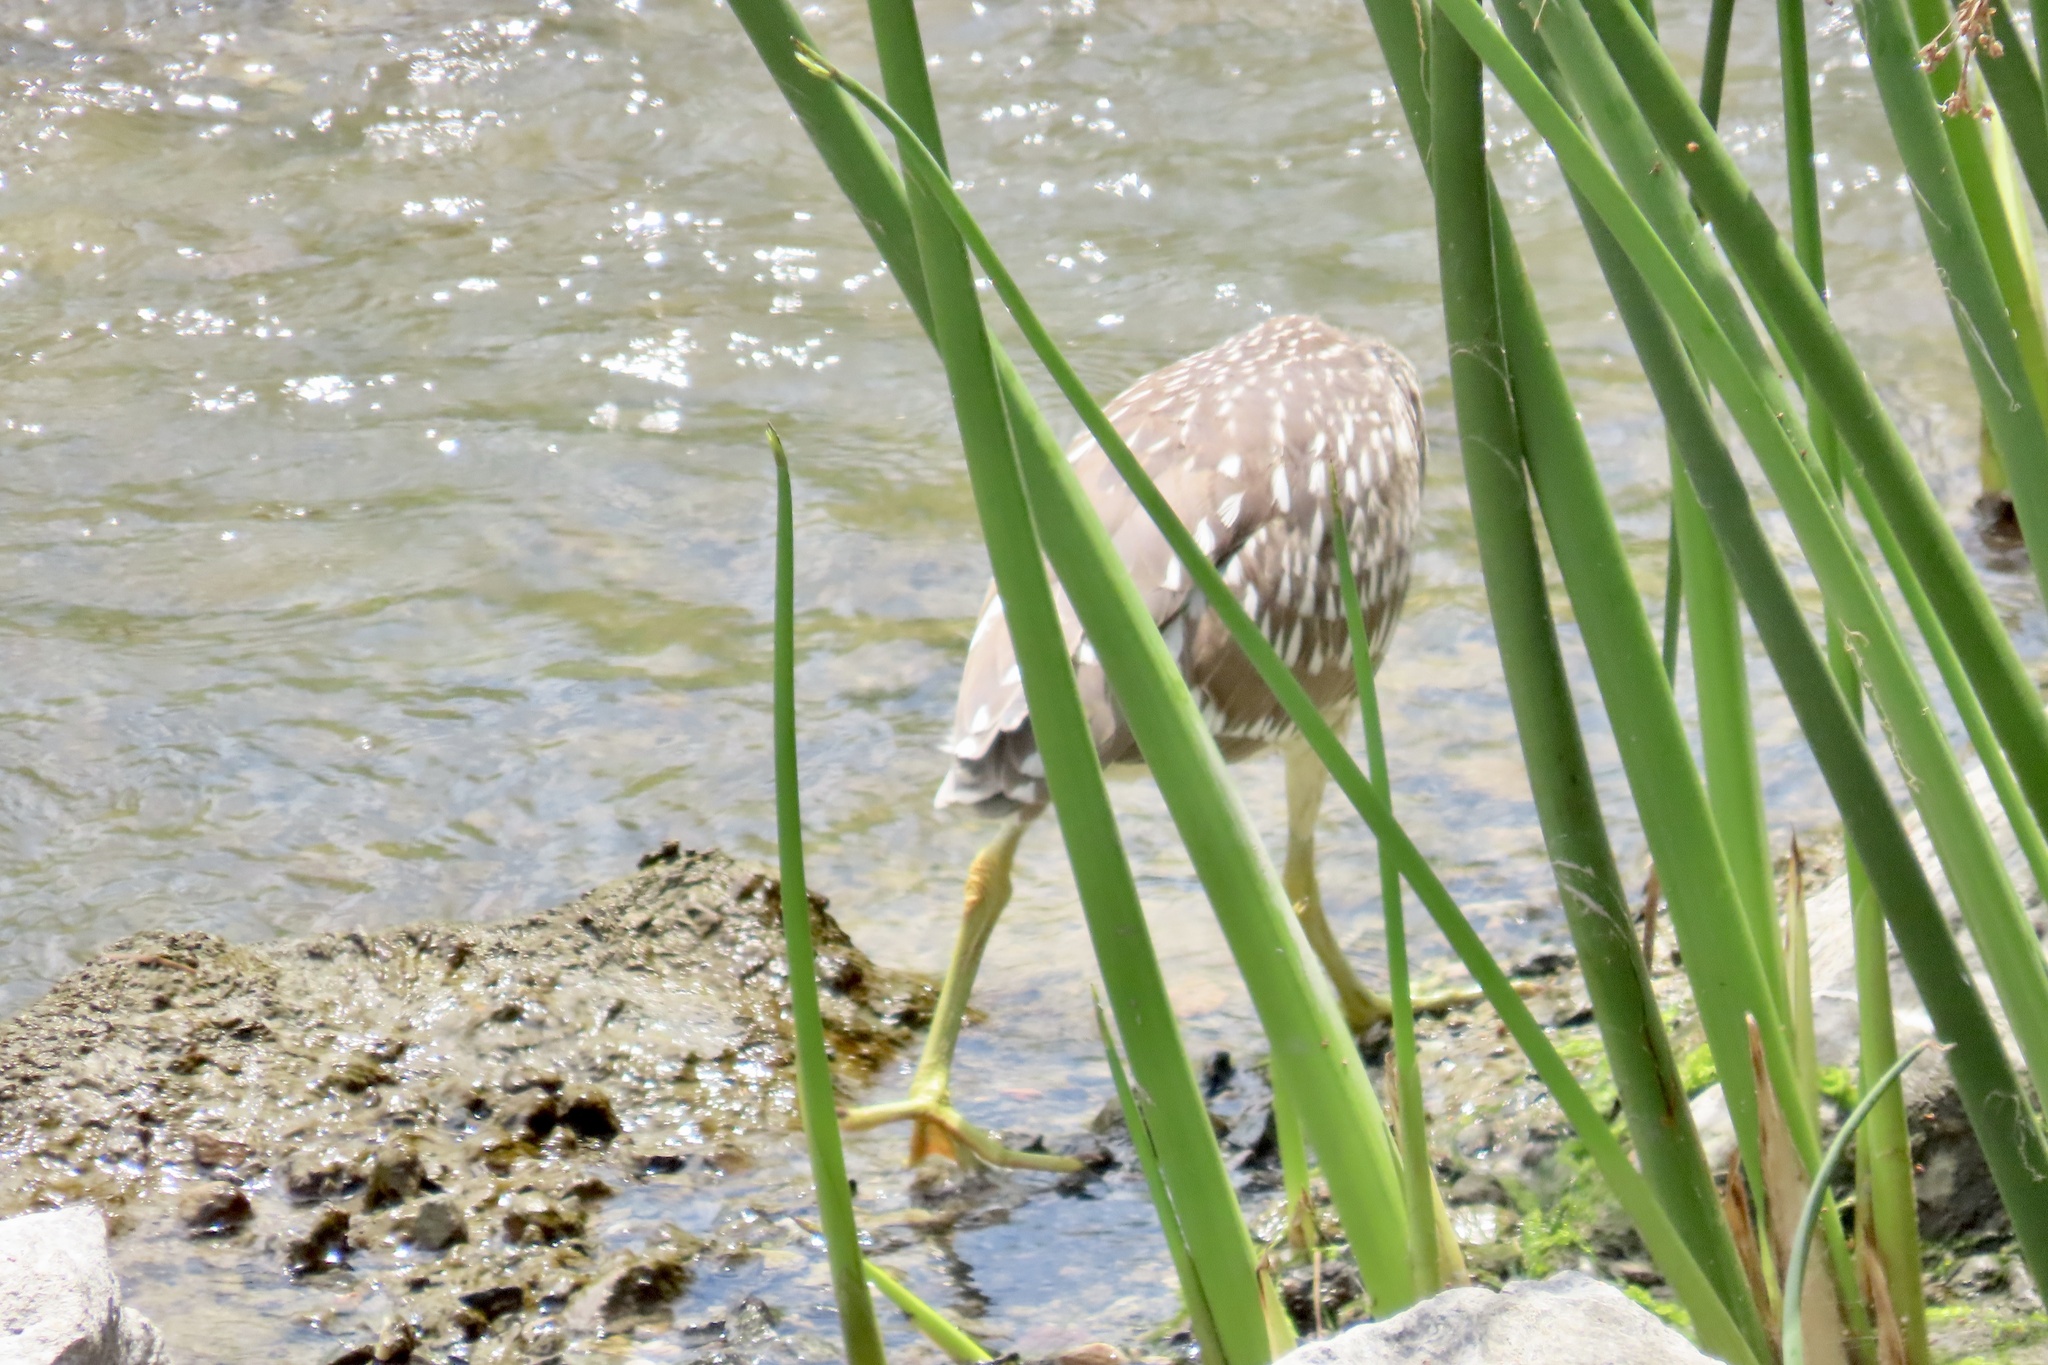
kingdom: Animalia
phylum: Chordata
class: Aves
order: Pelecaniformes
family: Ardeidae
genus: Nycticorax
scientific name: Nycticorax nycticorax
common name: Black-crowned night heron
